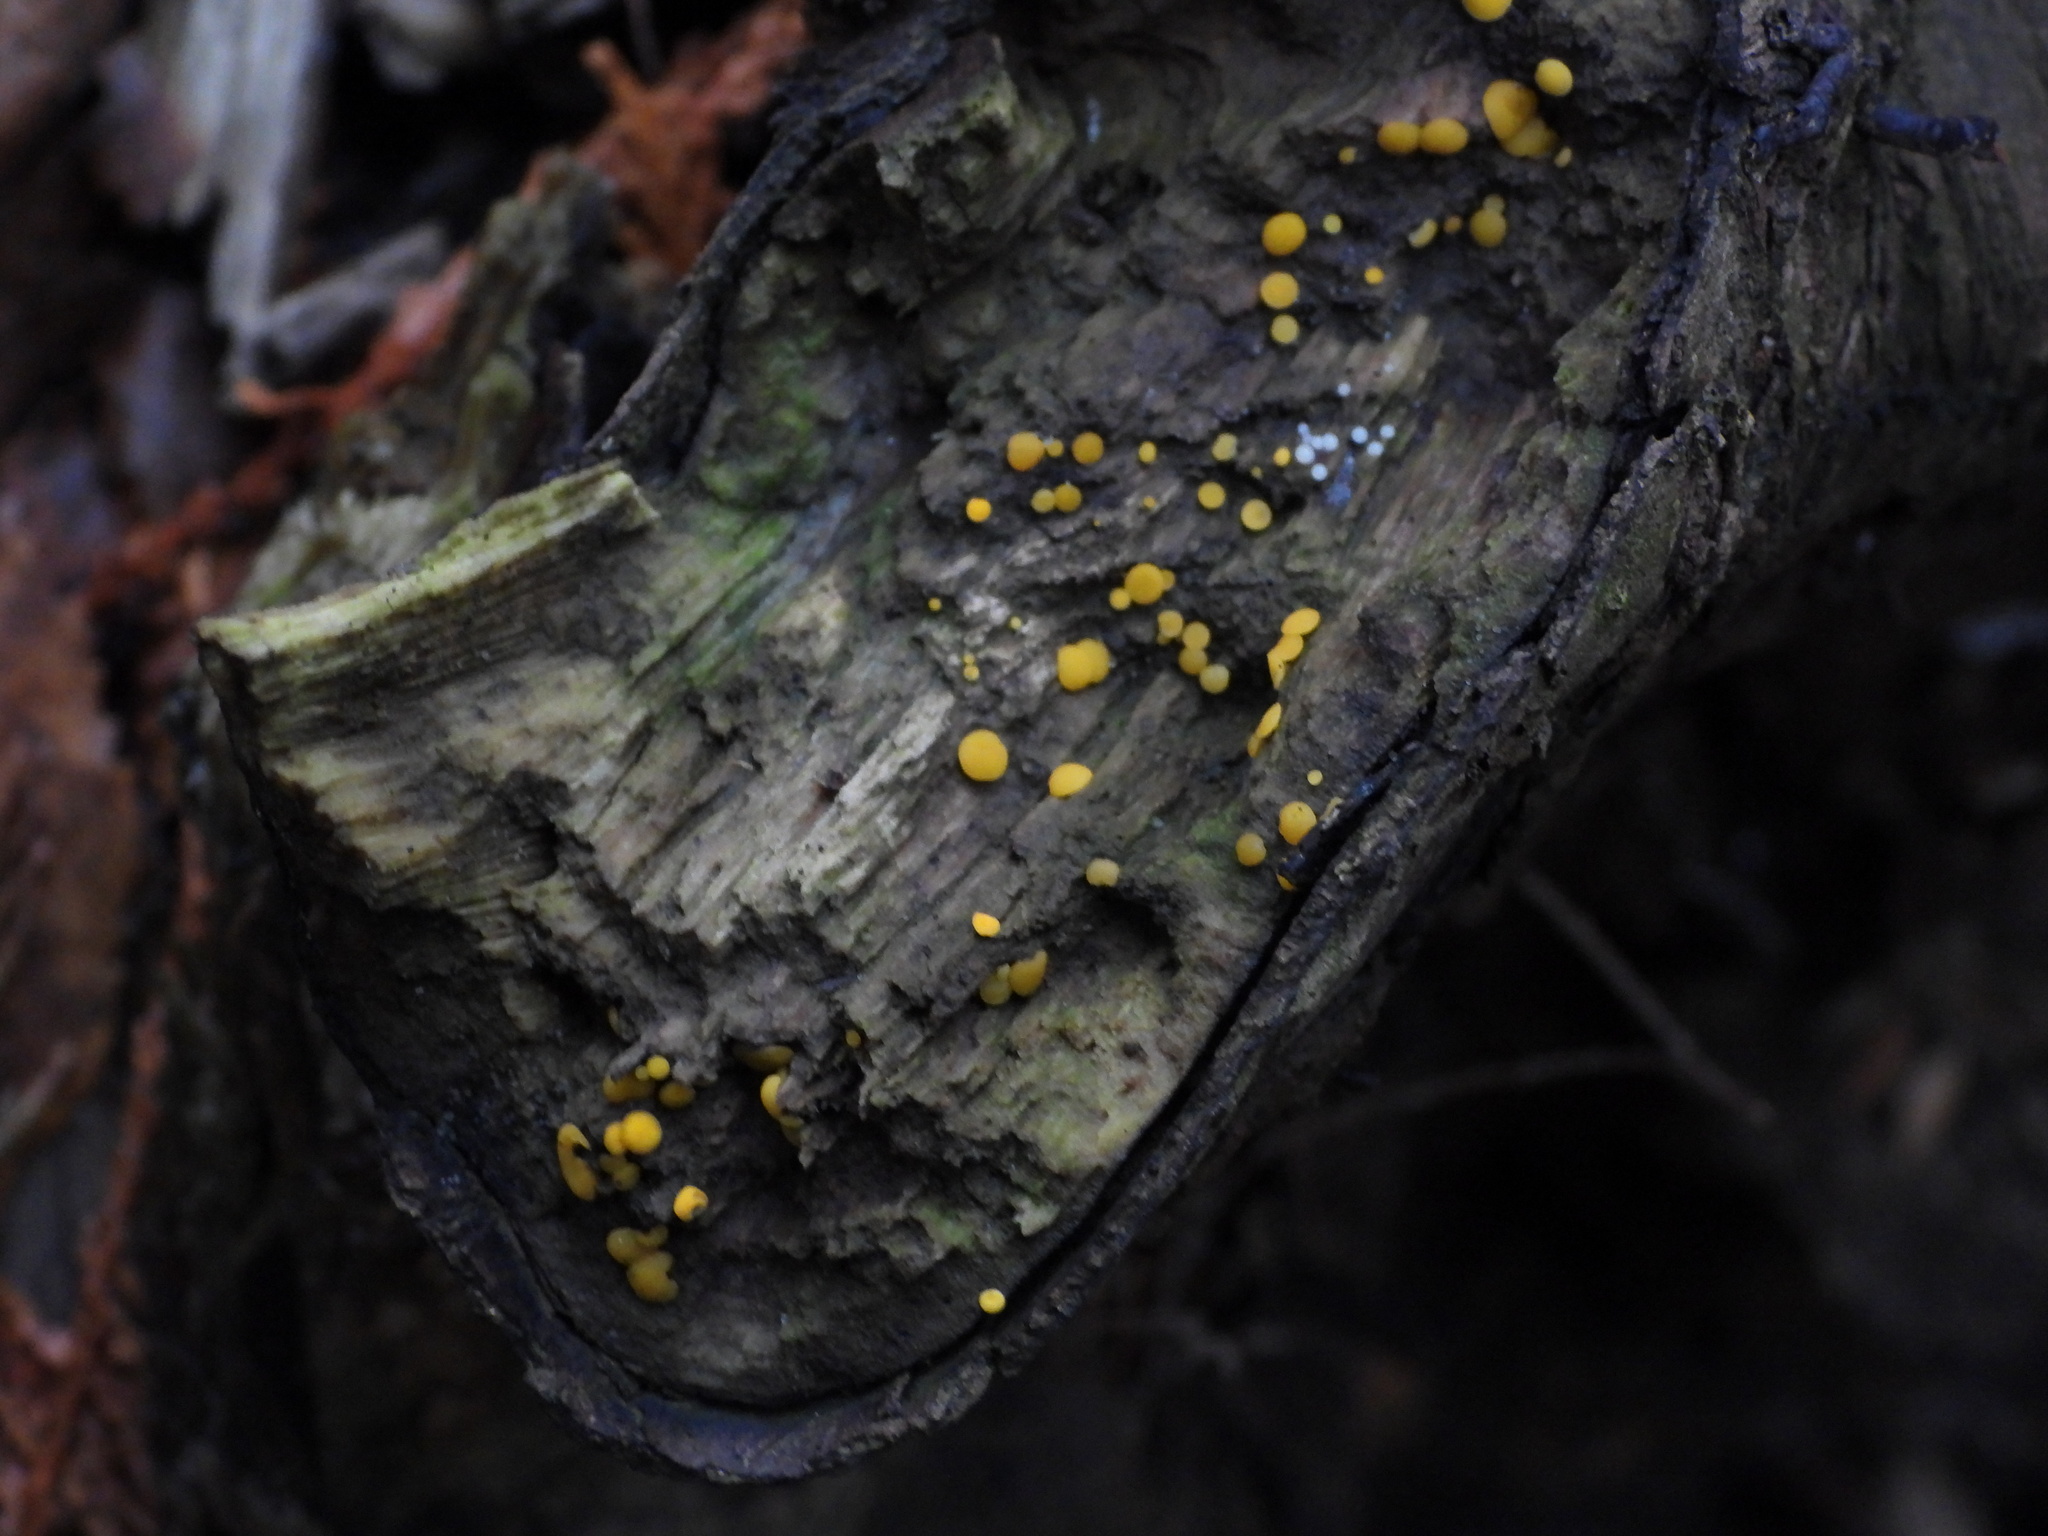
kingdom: Fungi
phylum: Ascomycota
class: Leotiomycetes
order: Helotiales
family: Pezizellaceae
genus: Calycina
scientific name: Calycina citrina
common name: Yellow fairy cups
